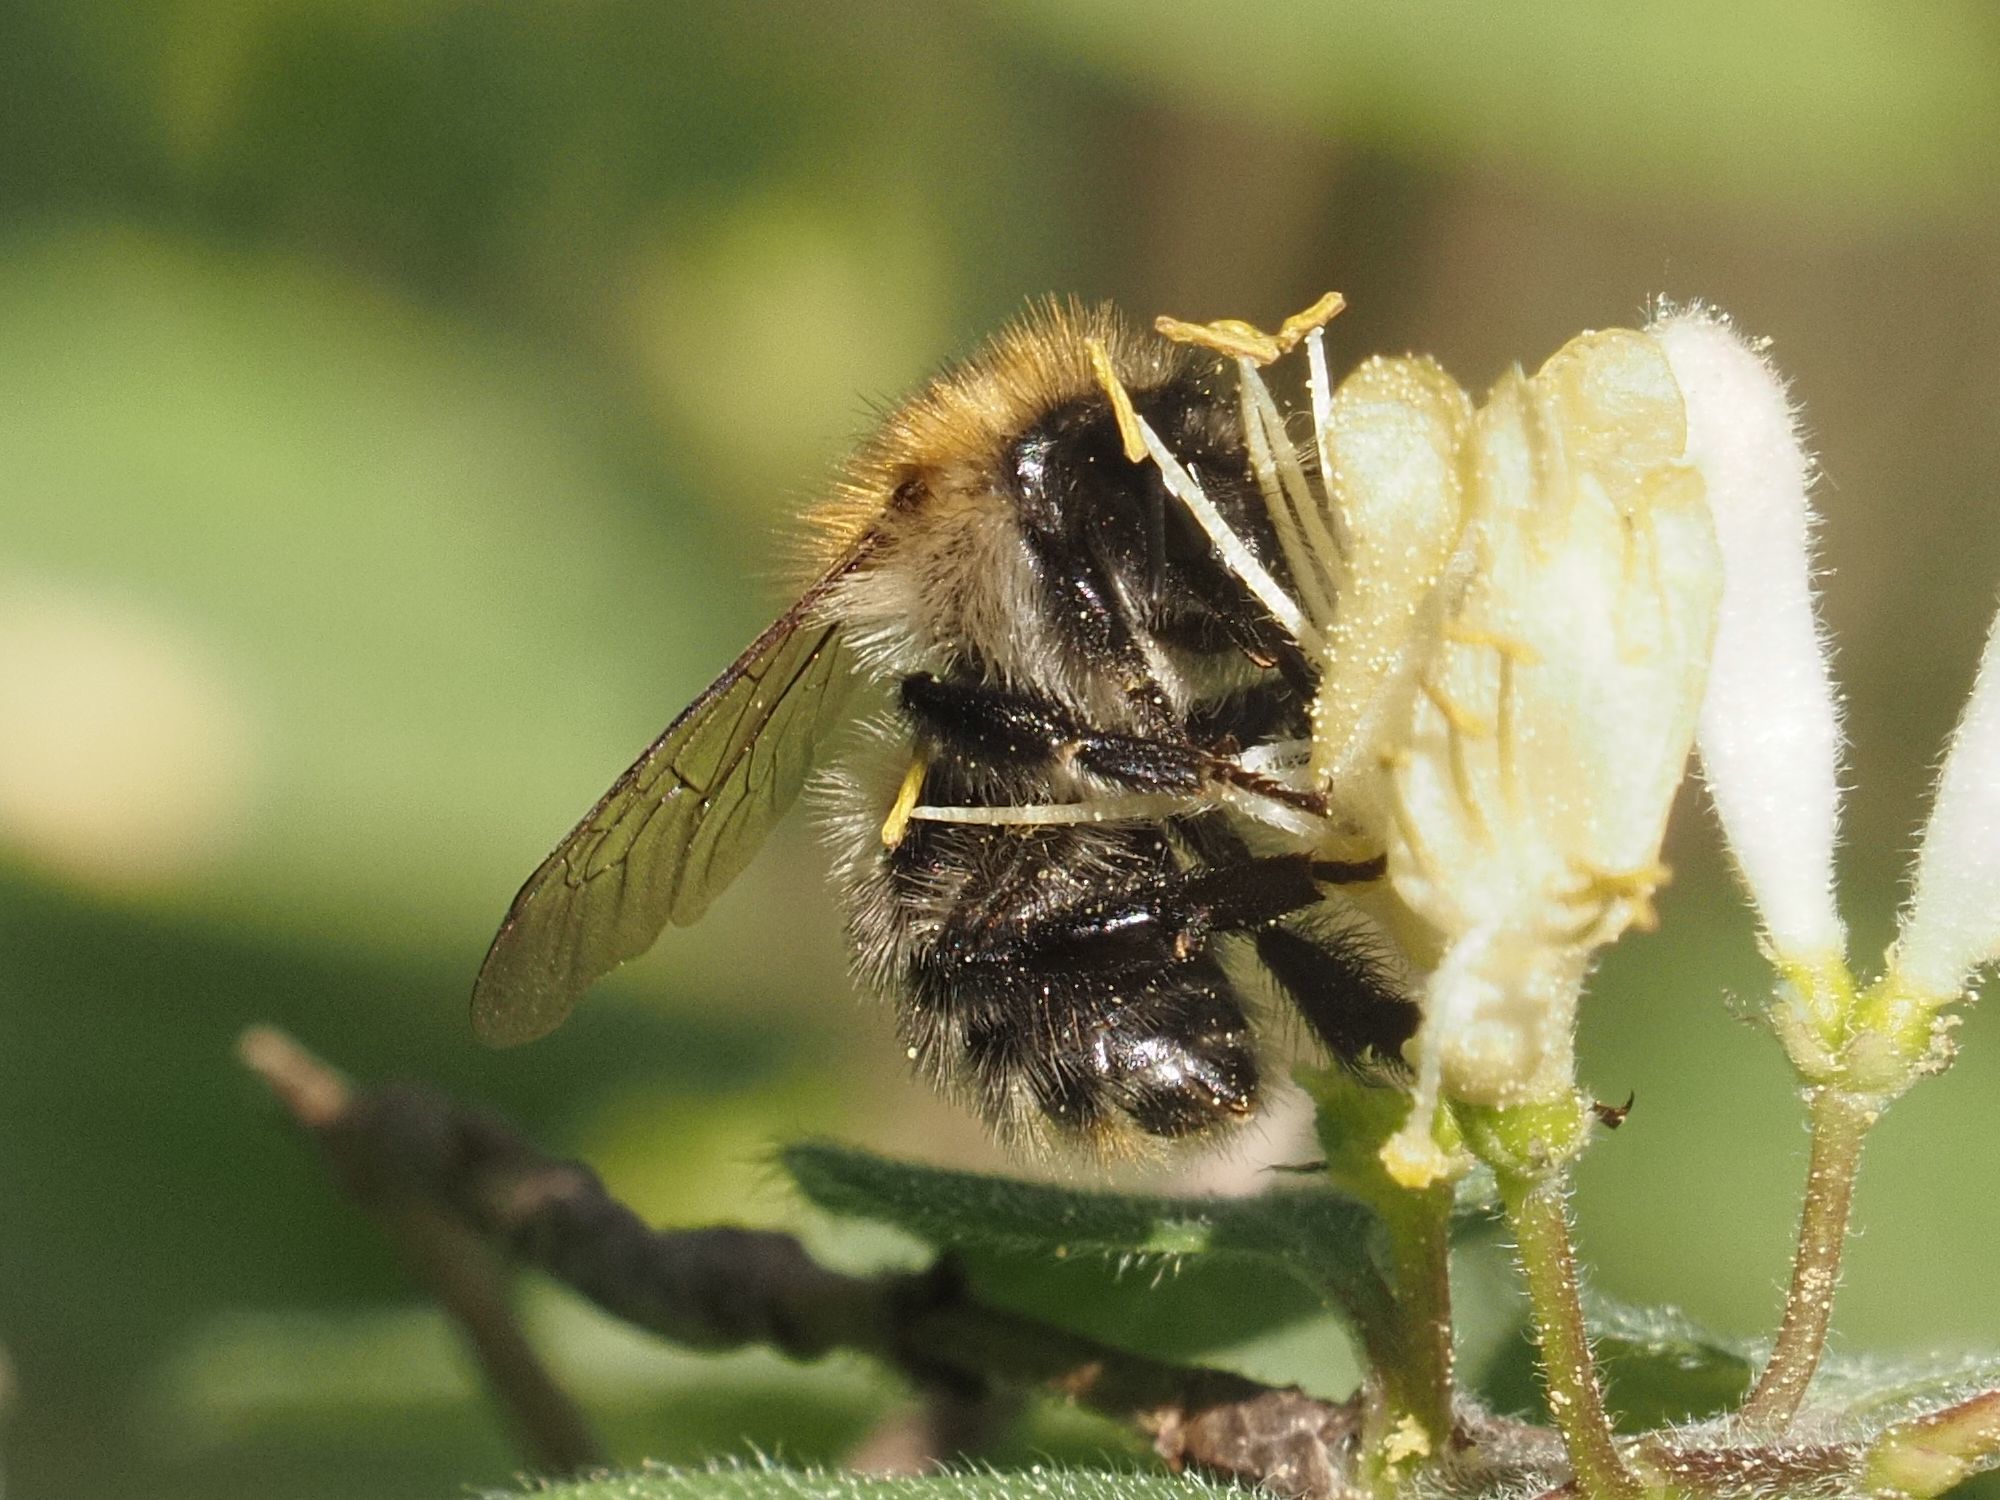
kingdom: Animalia
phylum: Arthropoda
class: Insecta
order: Hymenoptera
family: Apidae
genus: Bombus
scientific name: Bombus pascuorum
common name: Common carder bee
